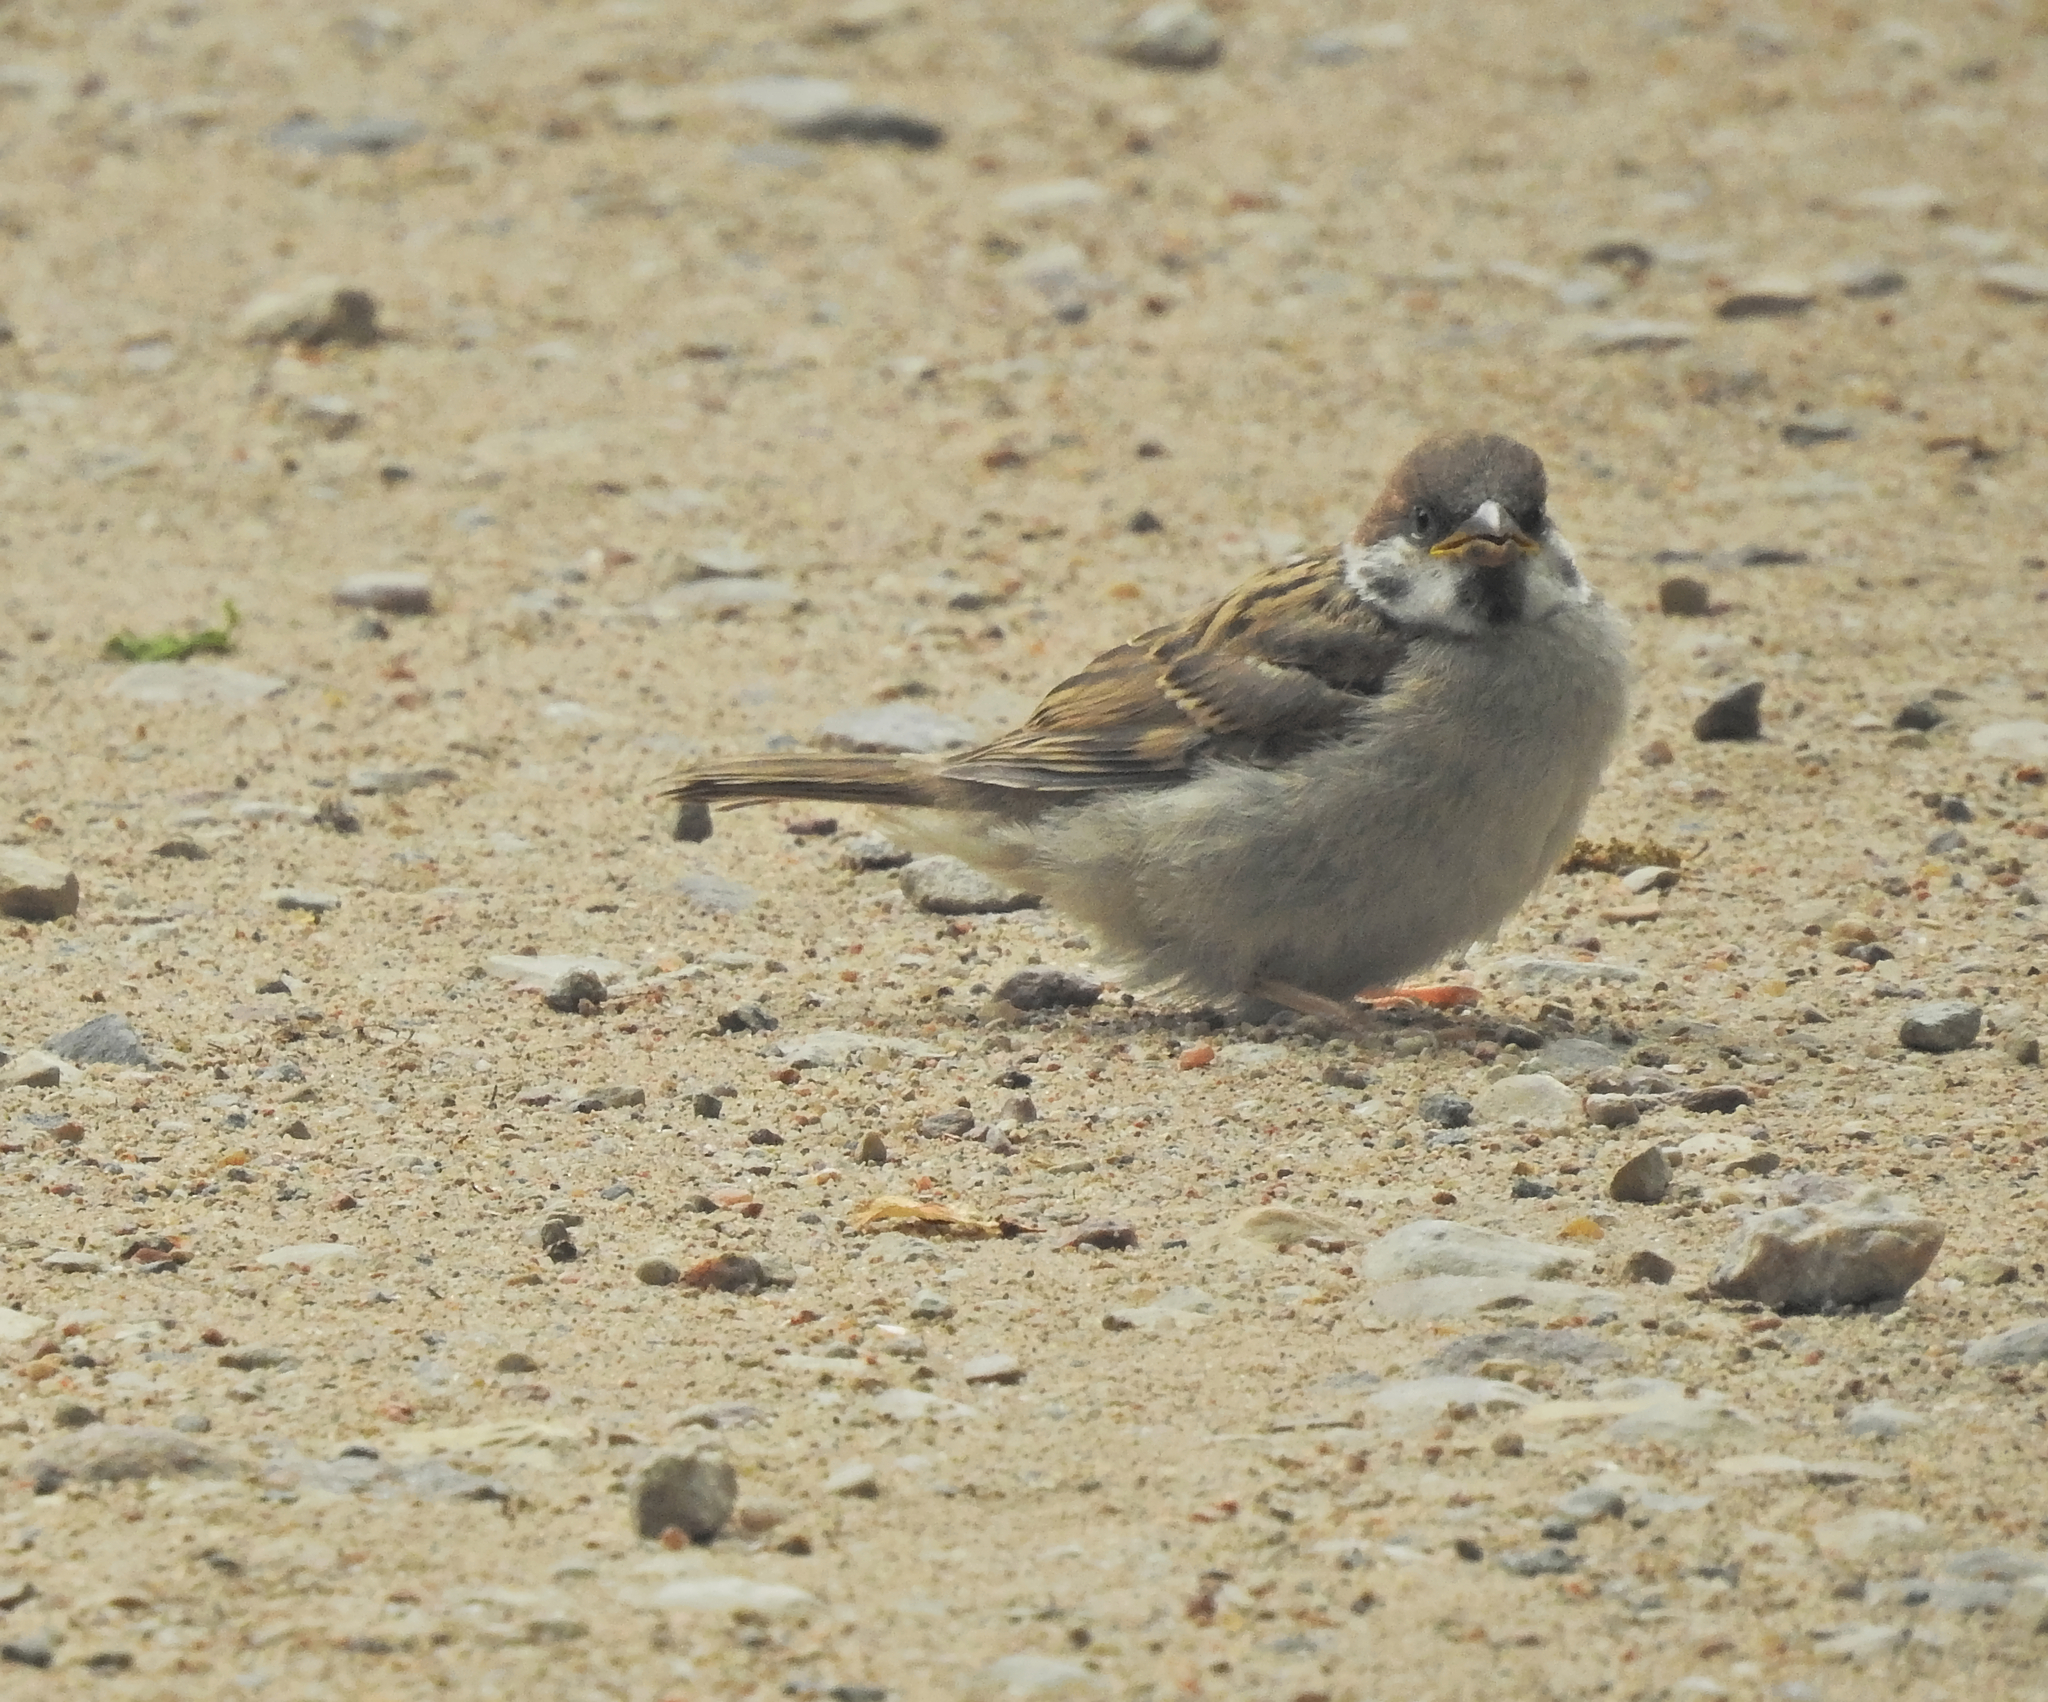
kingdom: Animalia
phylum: Chordata
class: Aves
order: Passeriformes
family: Passeridae
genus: Passer
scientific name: Passer montanus
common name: Eurasian tree sparrow
